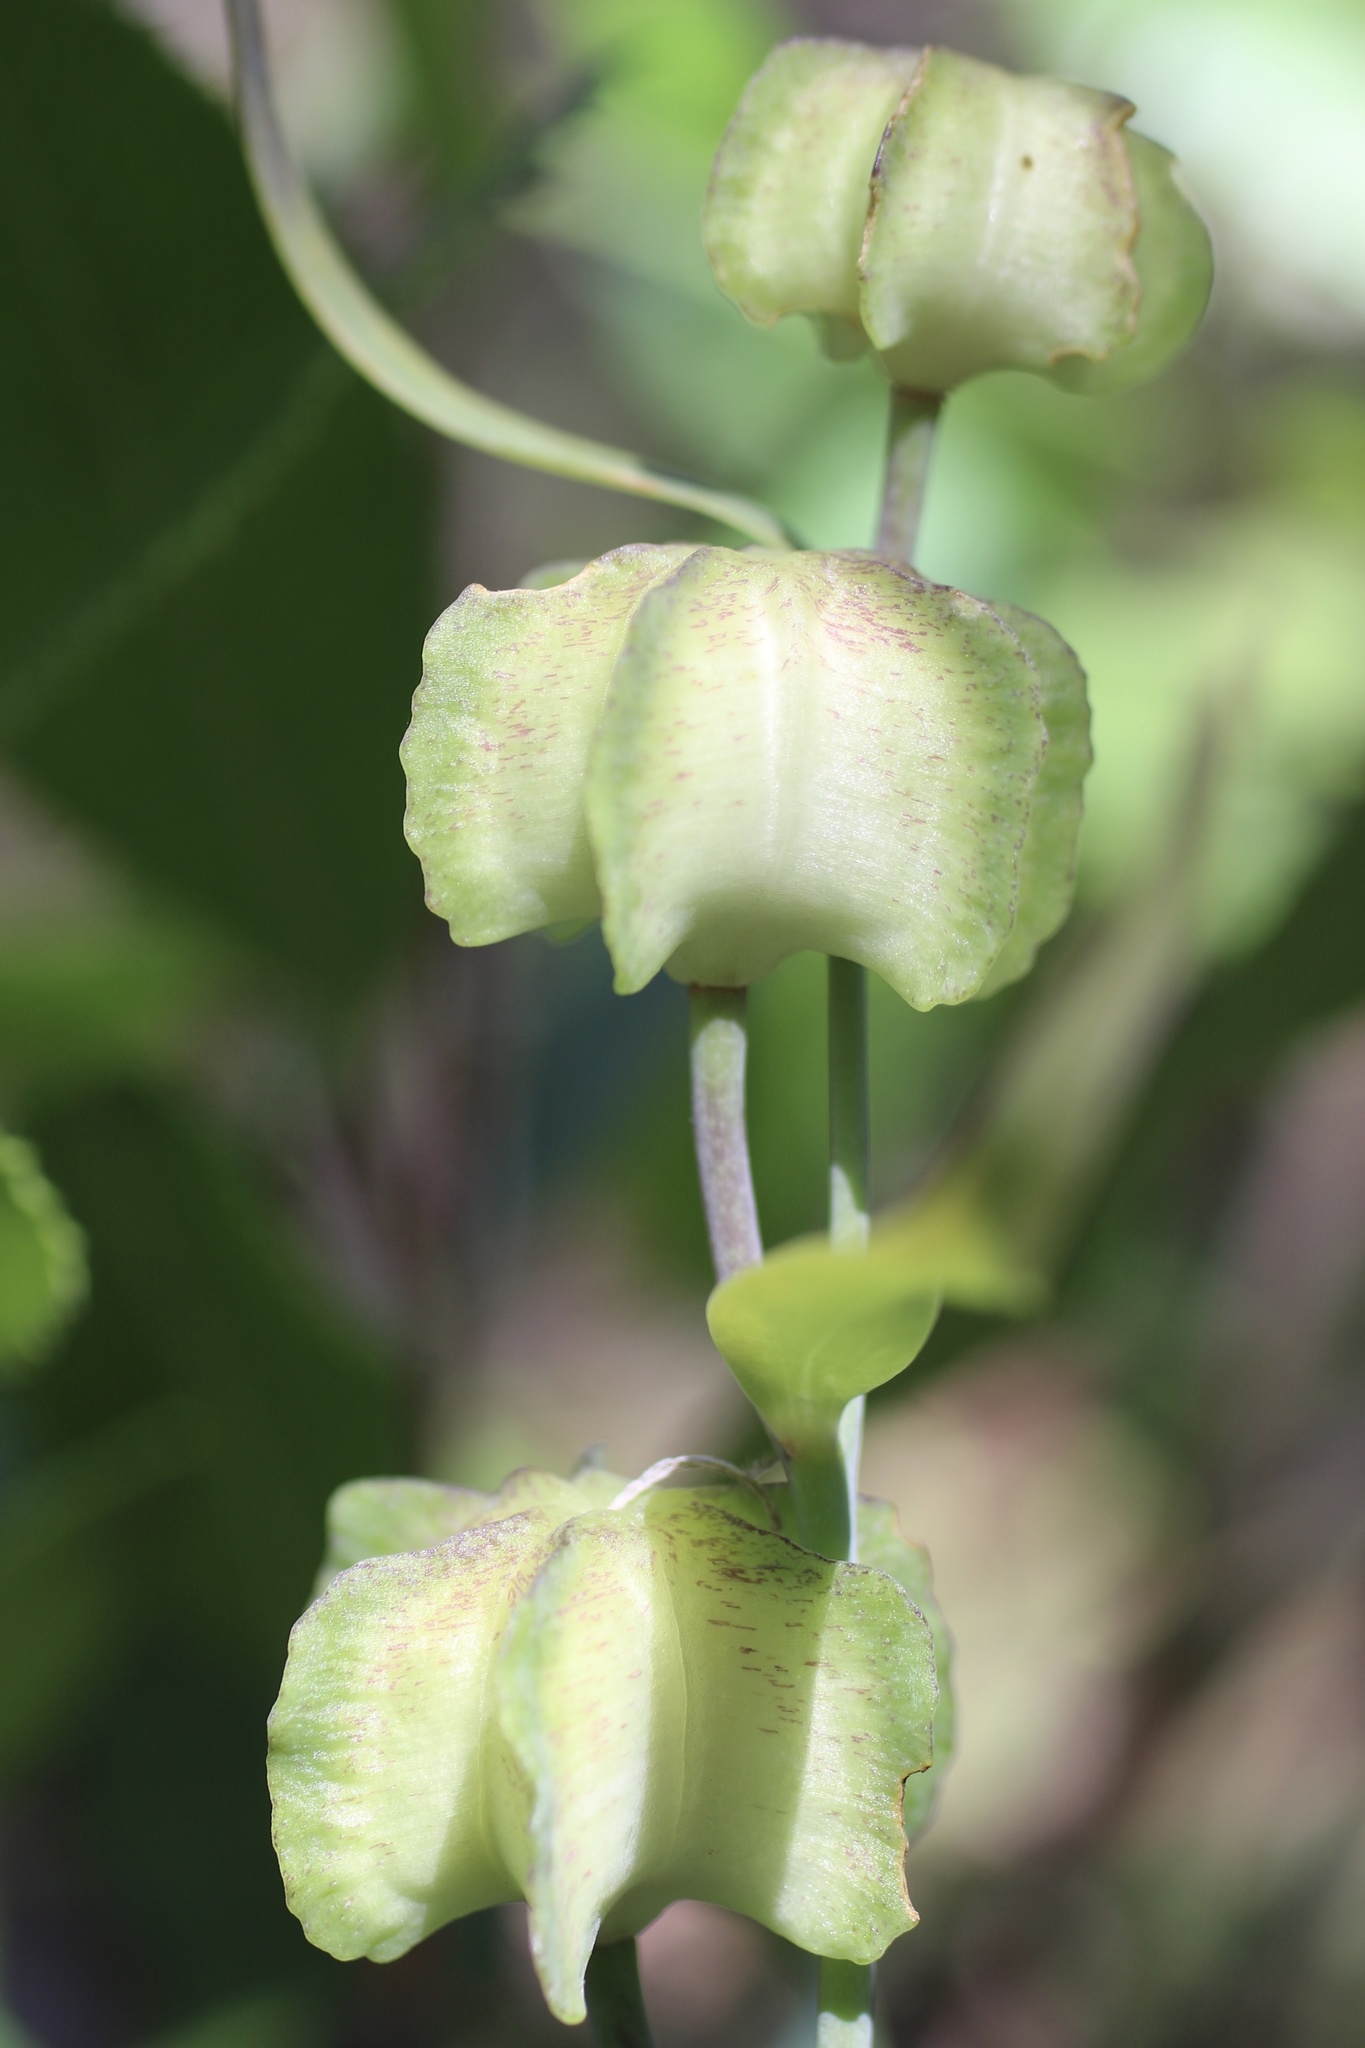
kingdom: Plantae
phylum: Tracheophyta
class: Liliopsida
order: Liliales
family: Liliaceae
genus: Fritillaria
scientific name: Fritillaria affinis
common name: Ojai fritillary
